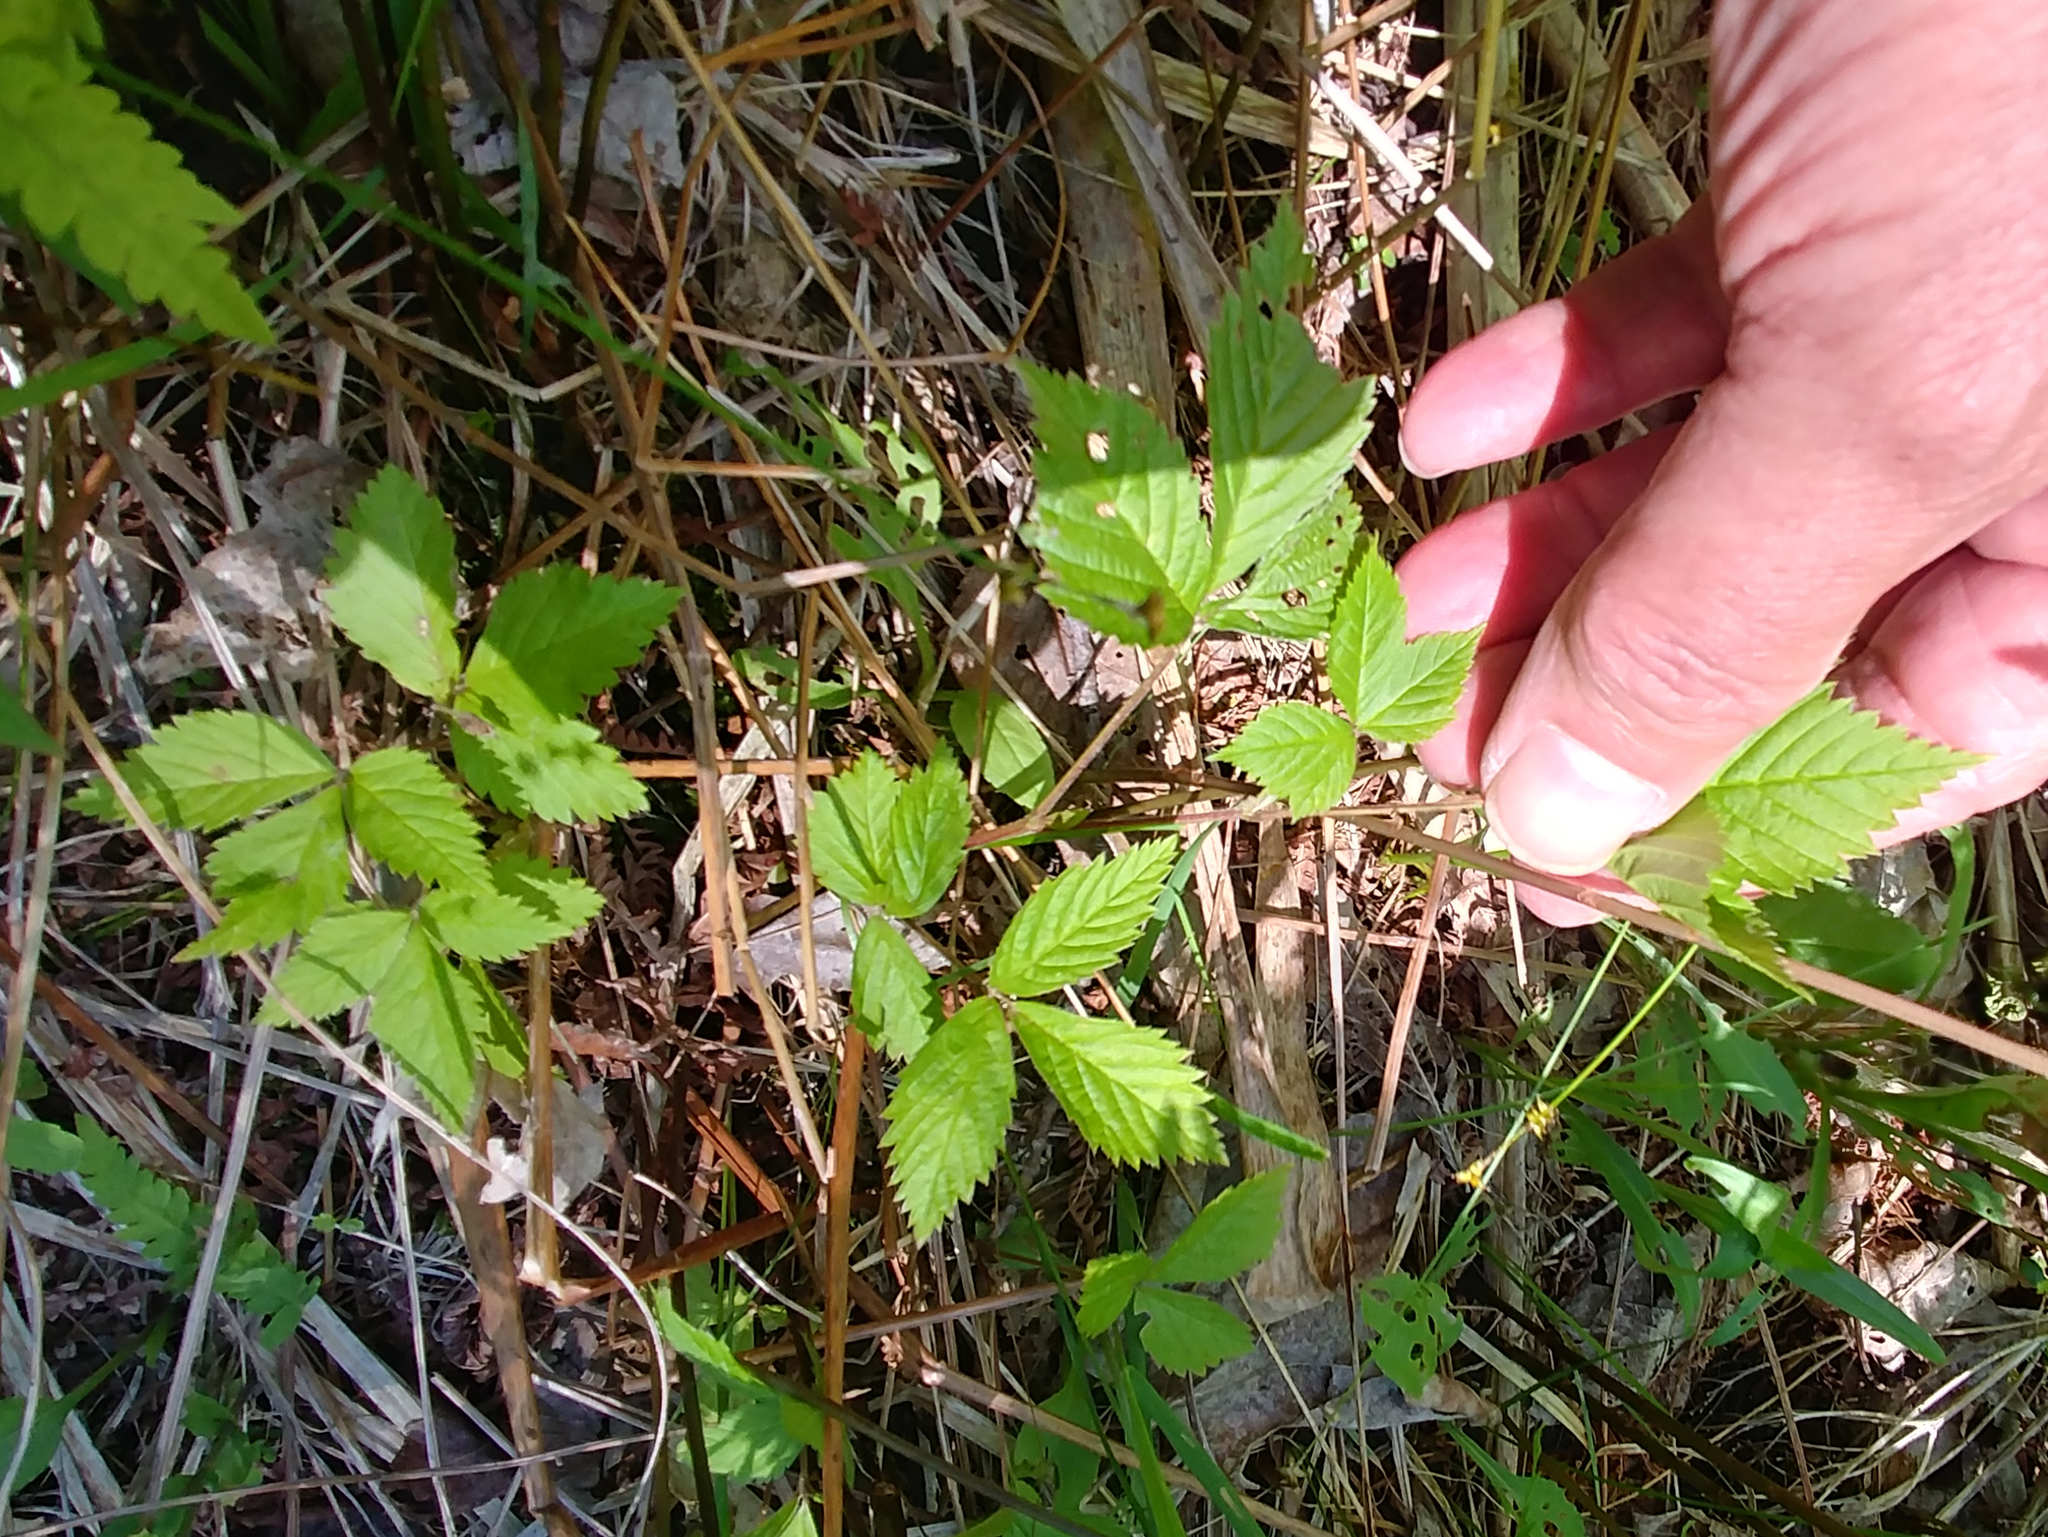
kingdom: Plantae
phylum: Tracheophyta
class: Magnoliopsida
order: Rosales
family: Rosaceae
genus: Rubus
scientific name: Rubus pubescens
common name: Dwarf raspberry
